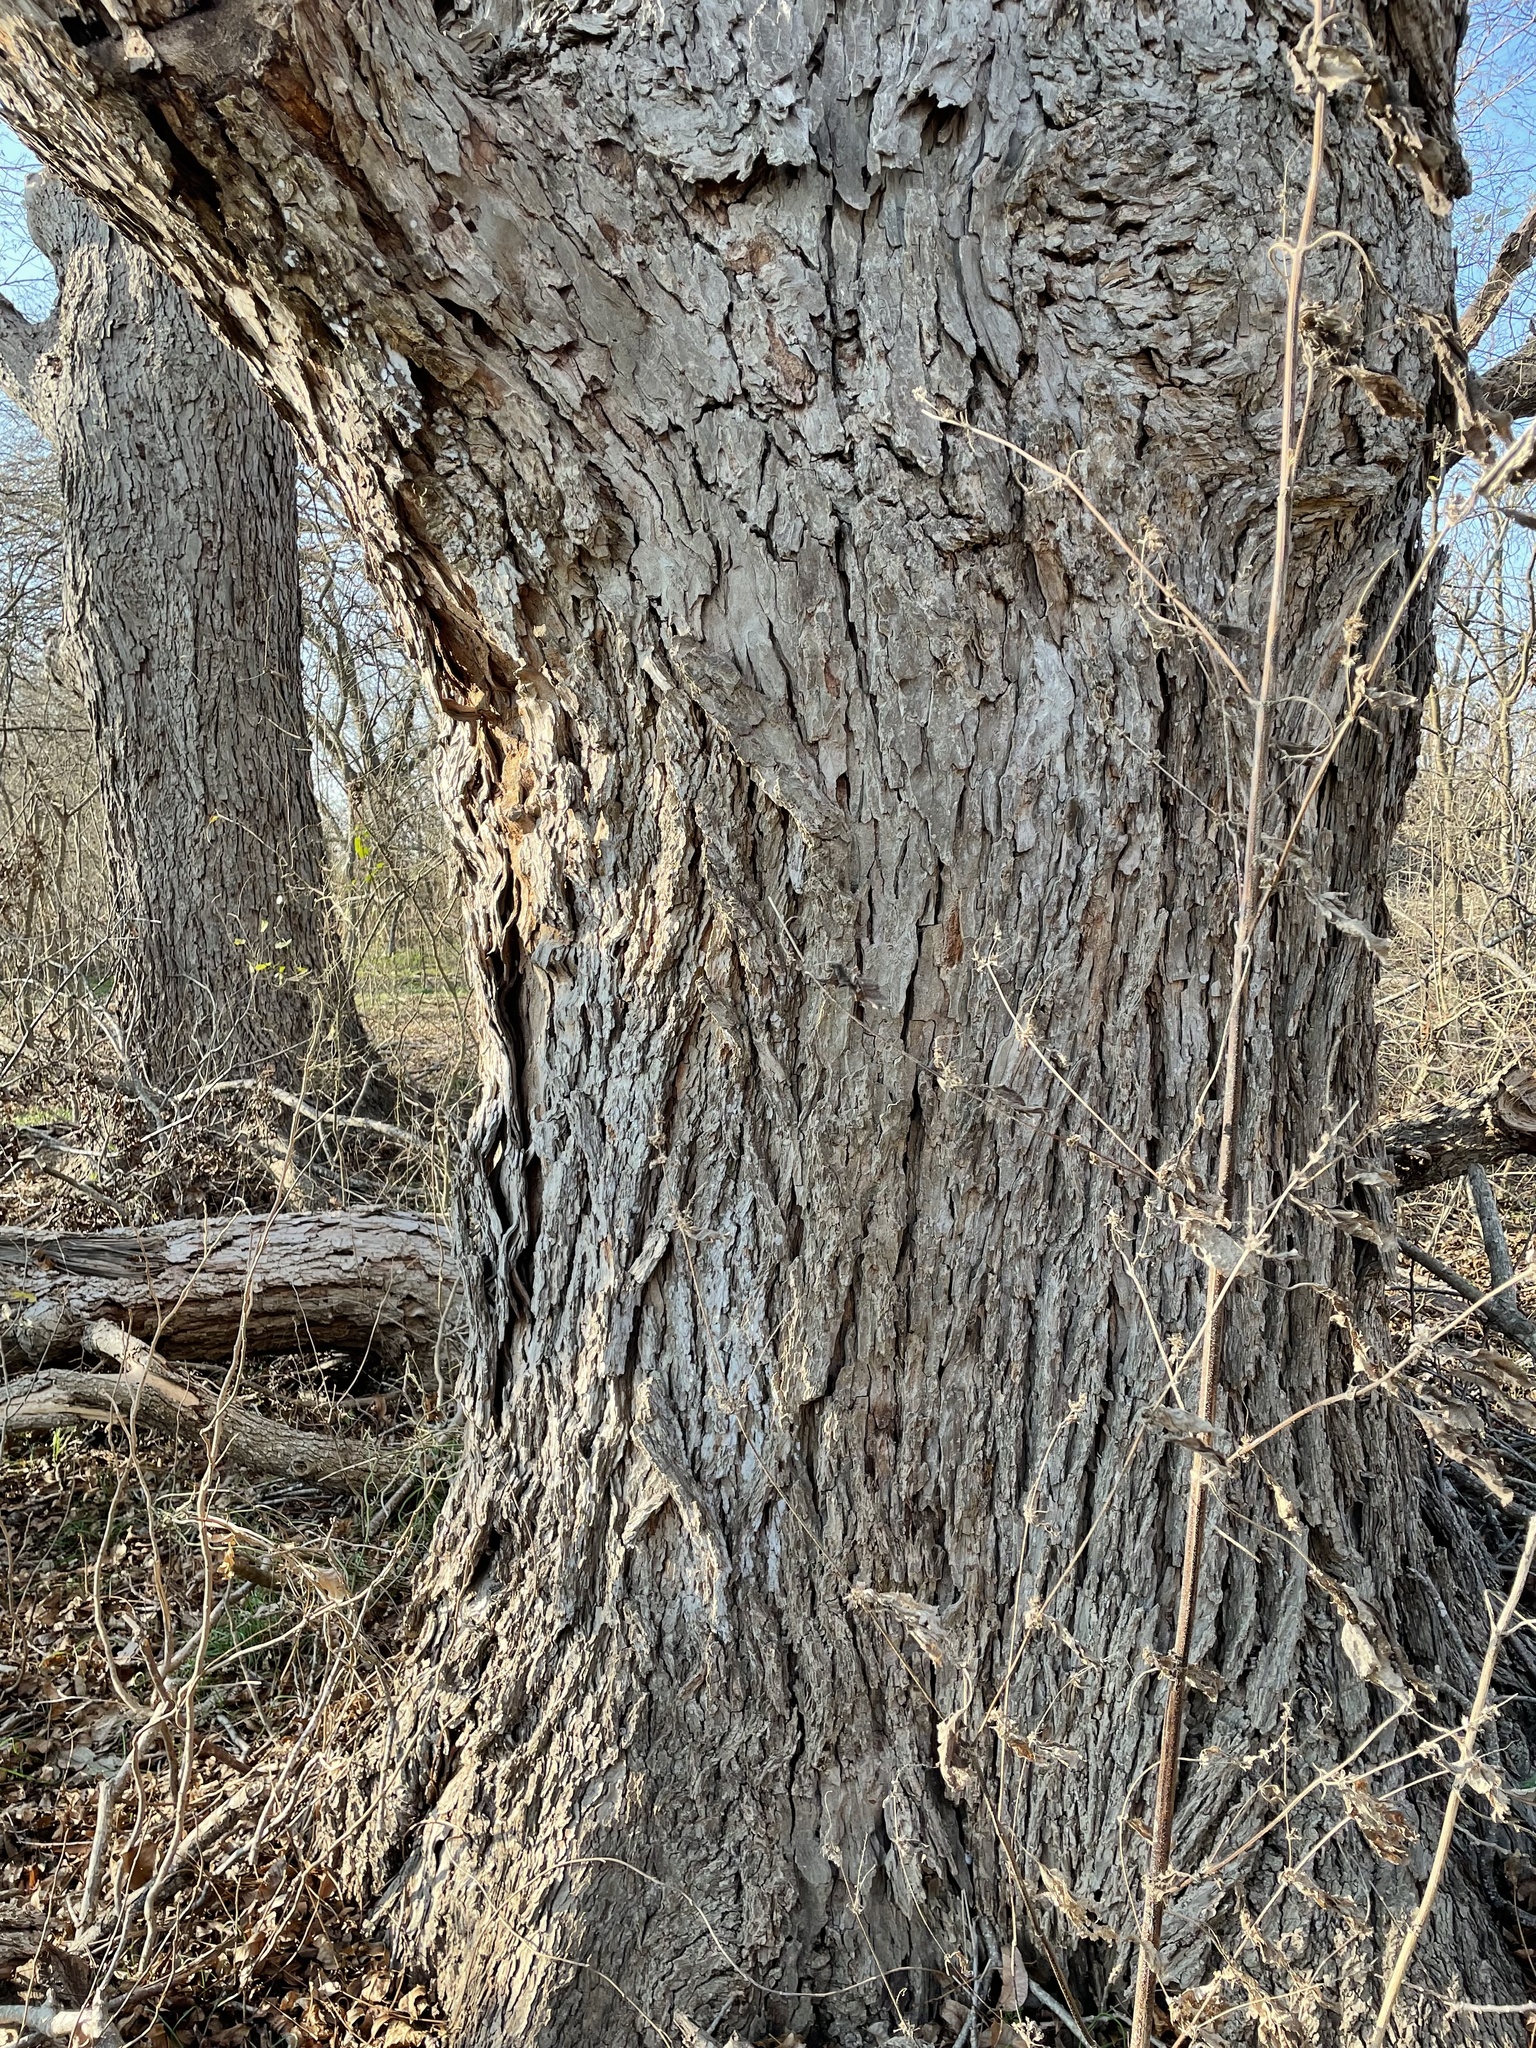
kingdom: Plantae
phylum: Tracheophyta
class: Magnoliopsida
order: Fagales
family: Juglandaceae
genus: Carya
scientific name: Carya illinoinensis
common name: Pecan
